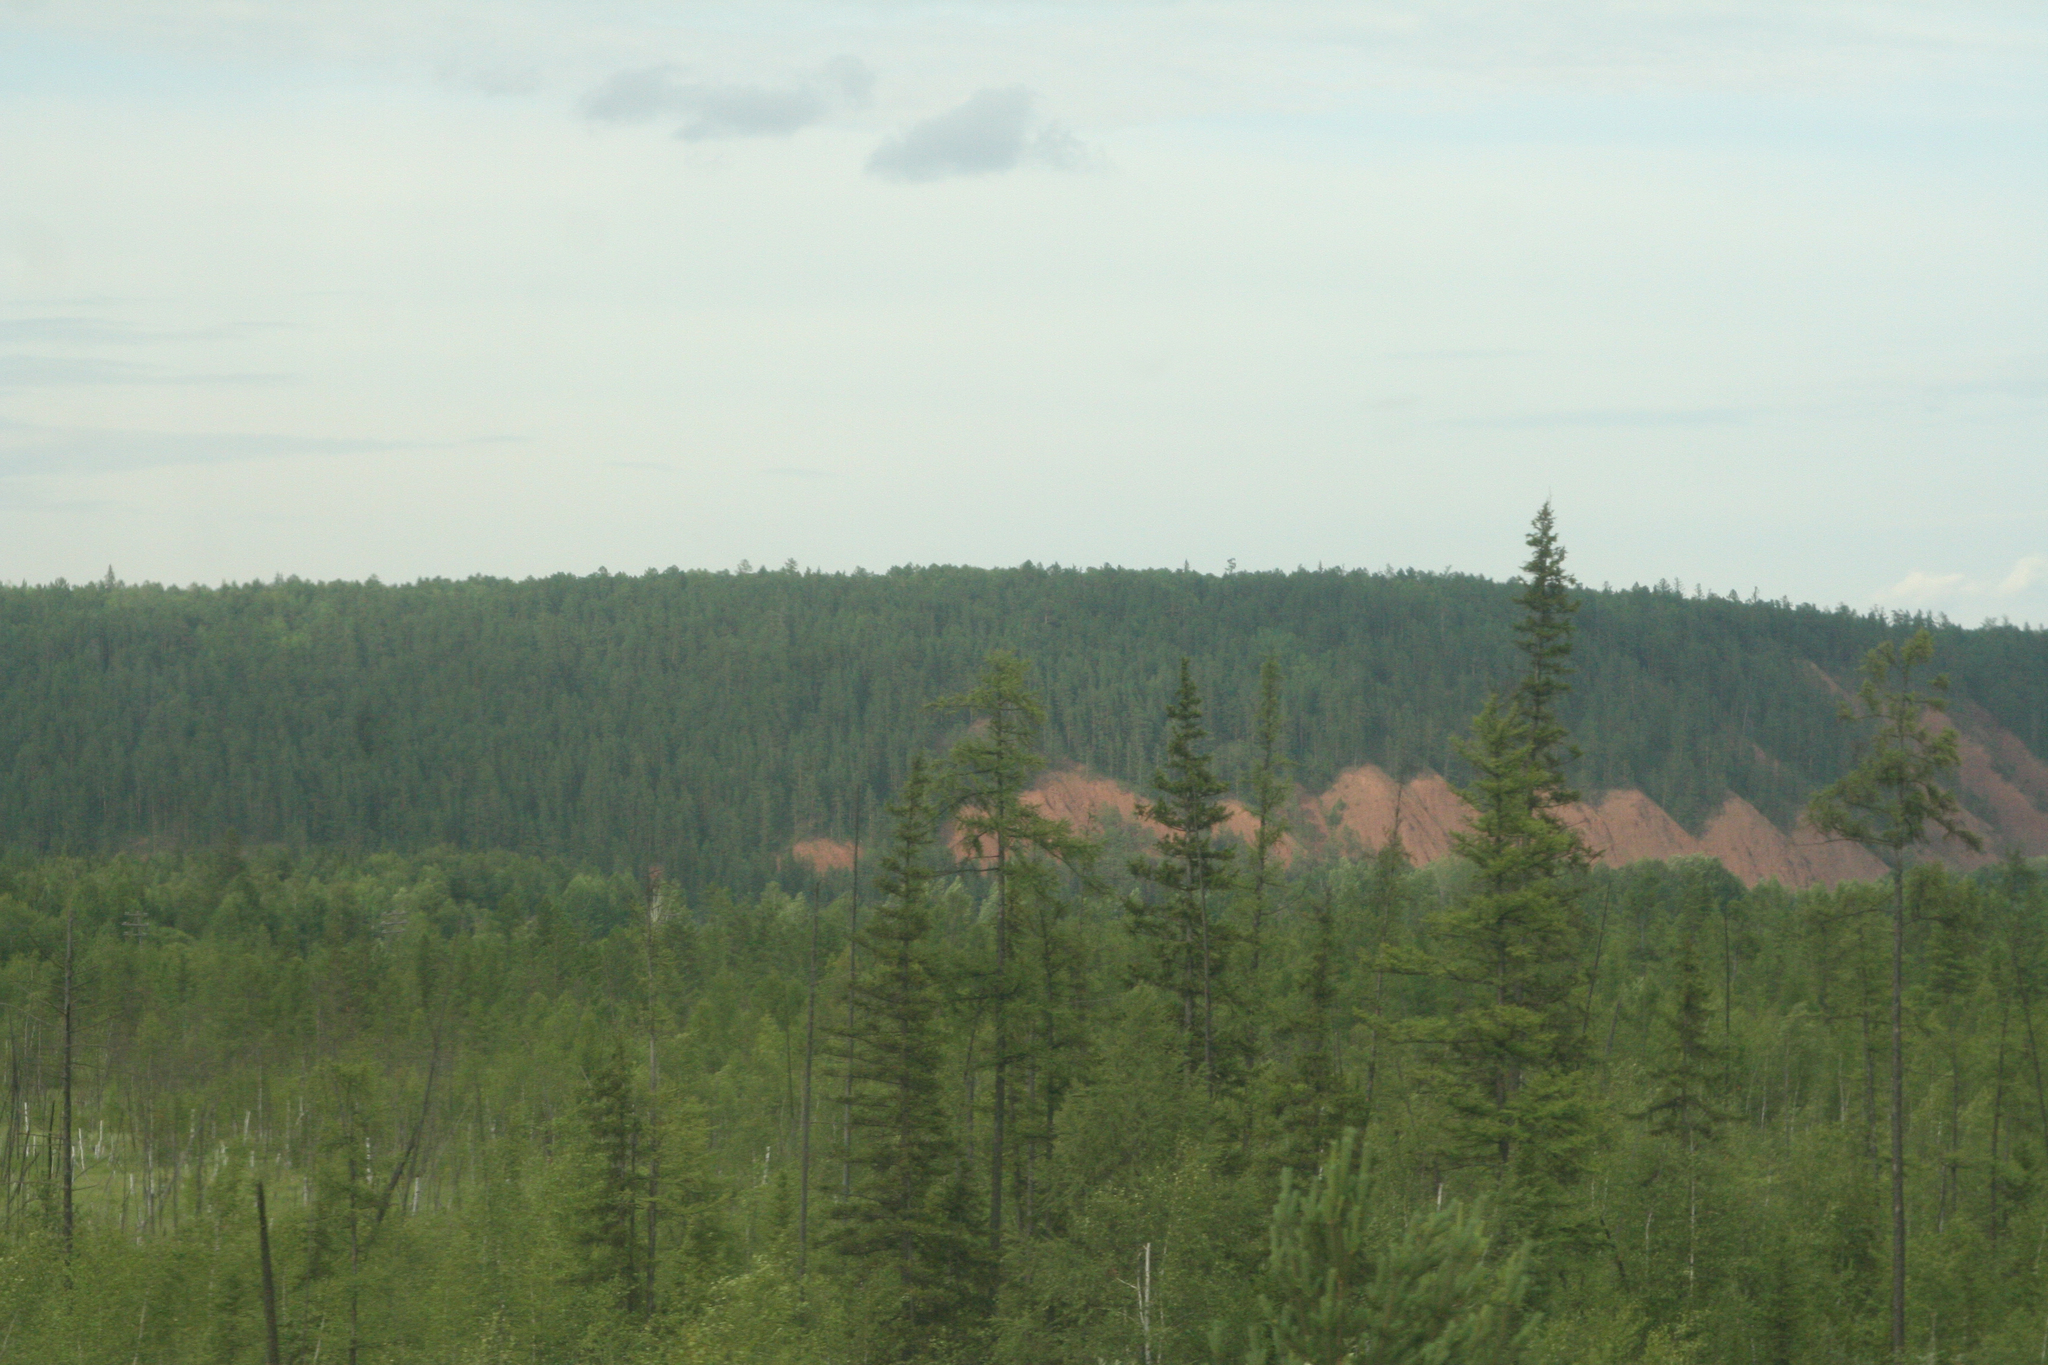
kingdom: Plantae
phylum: Tracheophyta
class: Pinopsida
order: Pinales
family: Pinaceae
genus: Picea
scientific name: Picea obovata
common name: Siberian spruce
